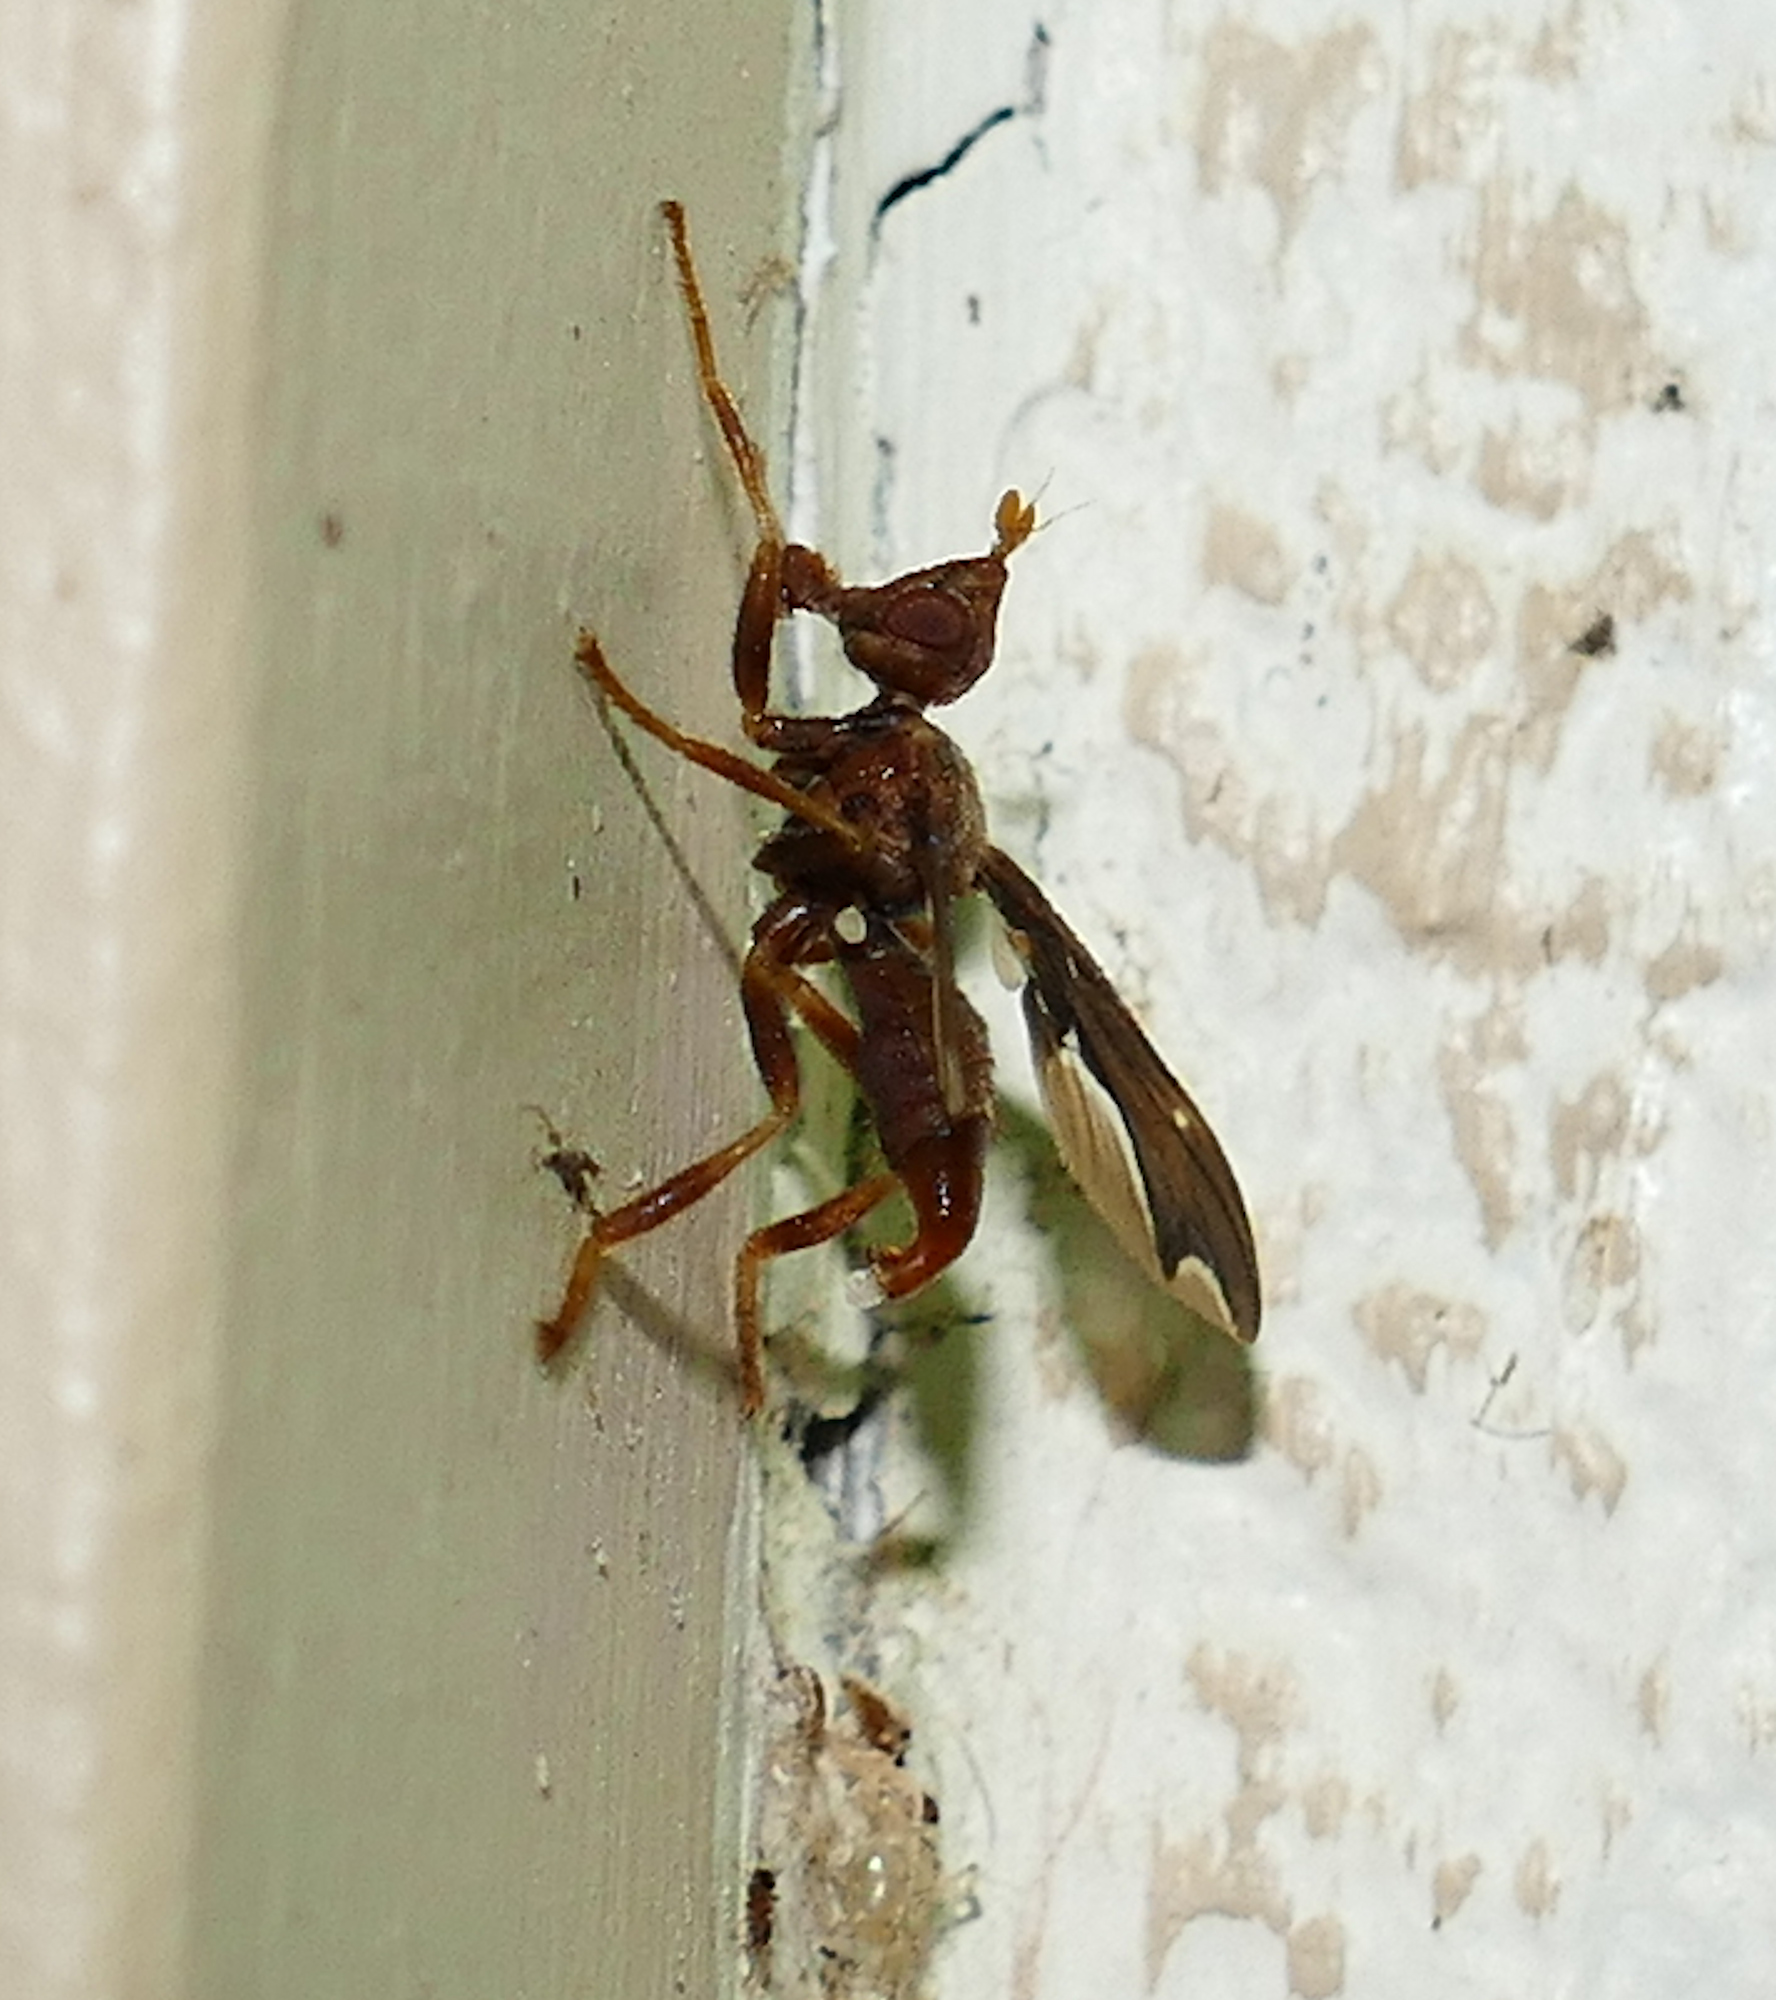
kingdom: Animalia
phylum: Arthropoda
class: Insecta
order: Diptera
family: Pyrgotidae
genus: Pyrgota
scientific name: Pyrgota undata
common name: Waved light fly
